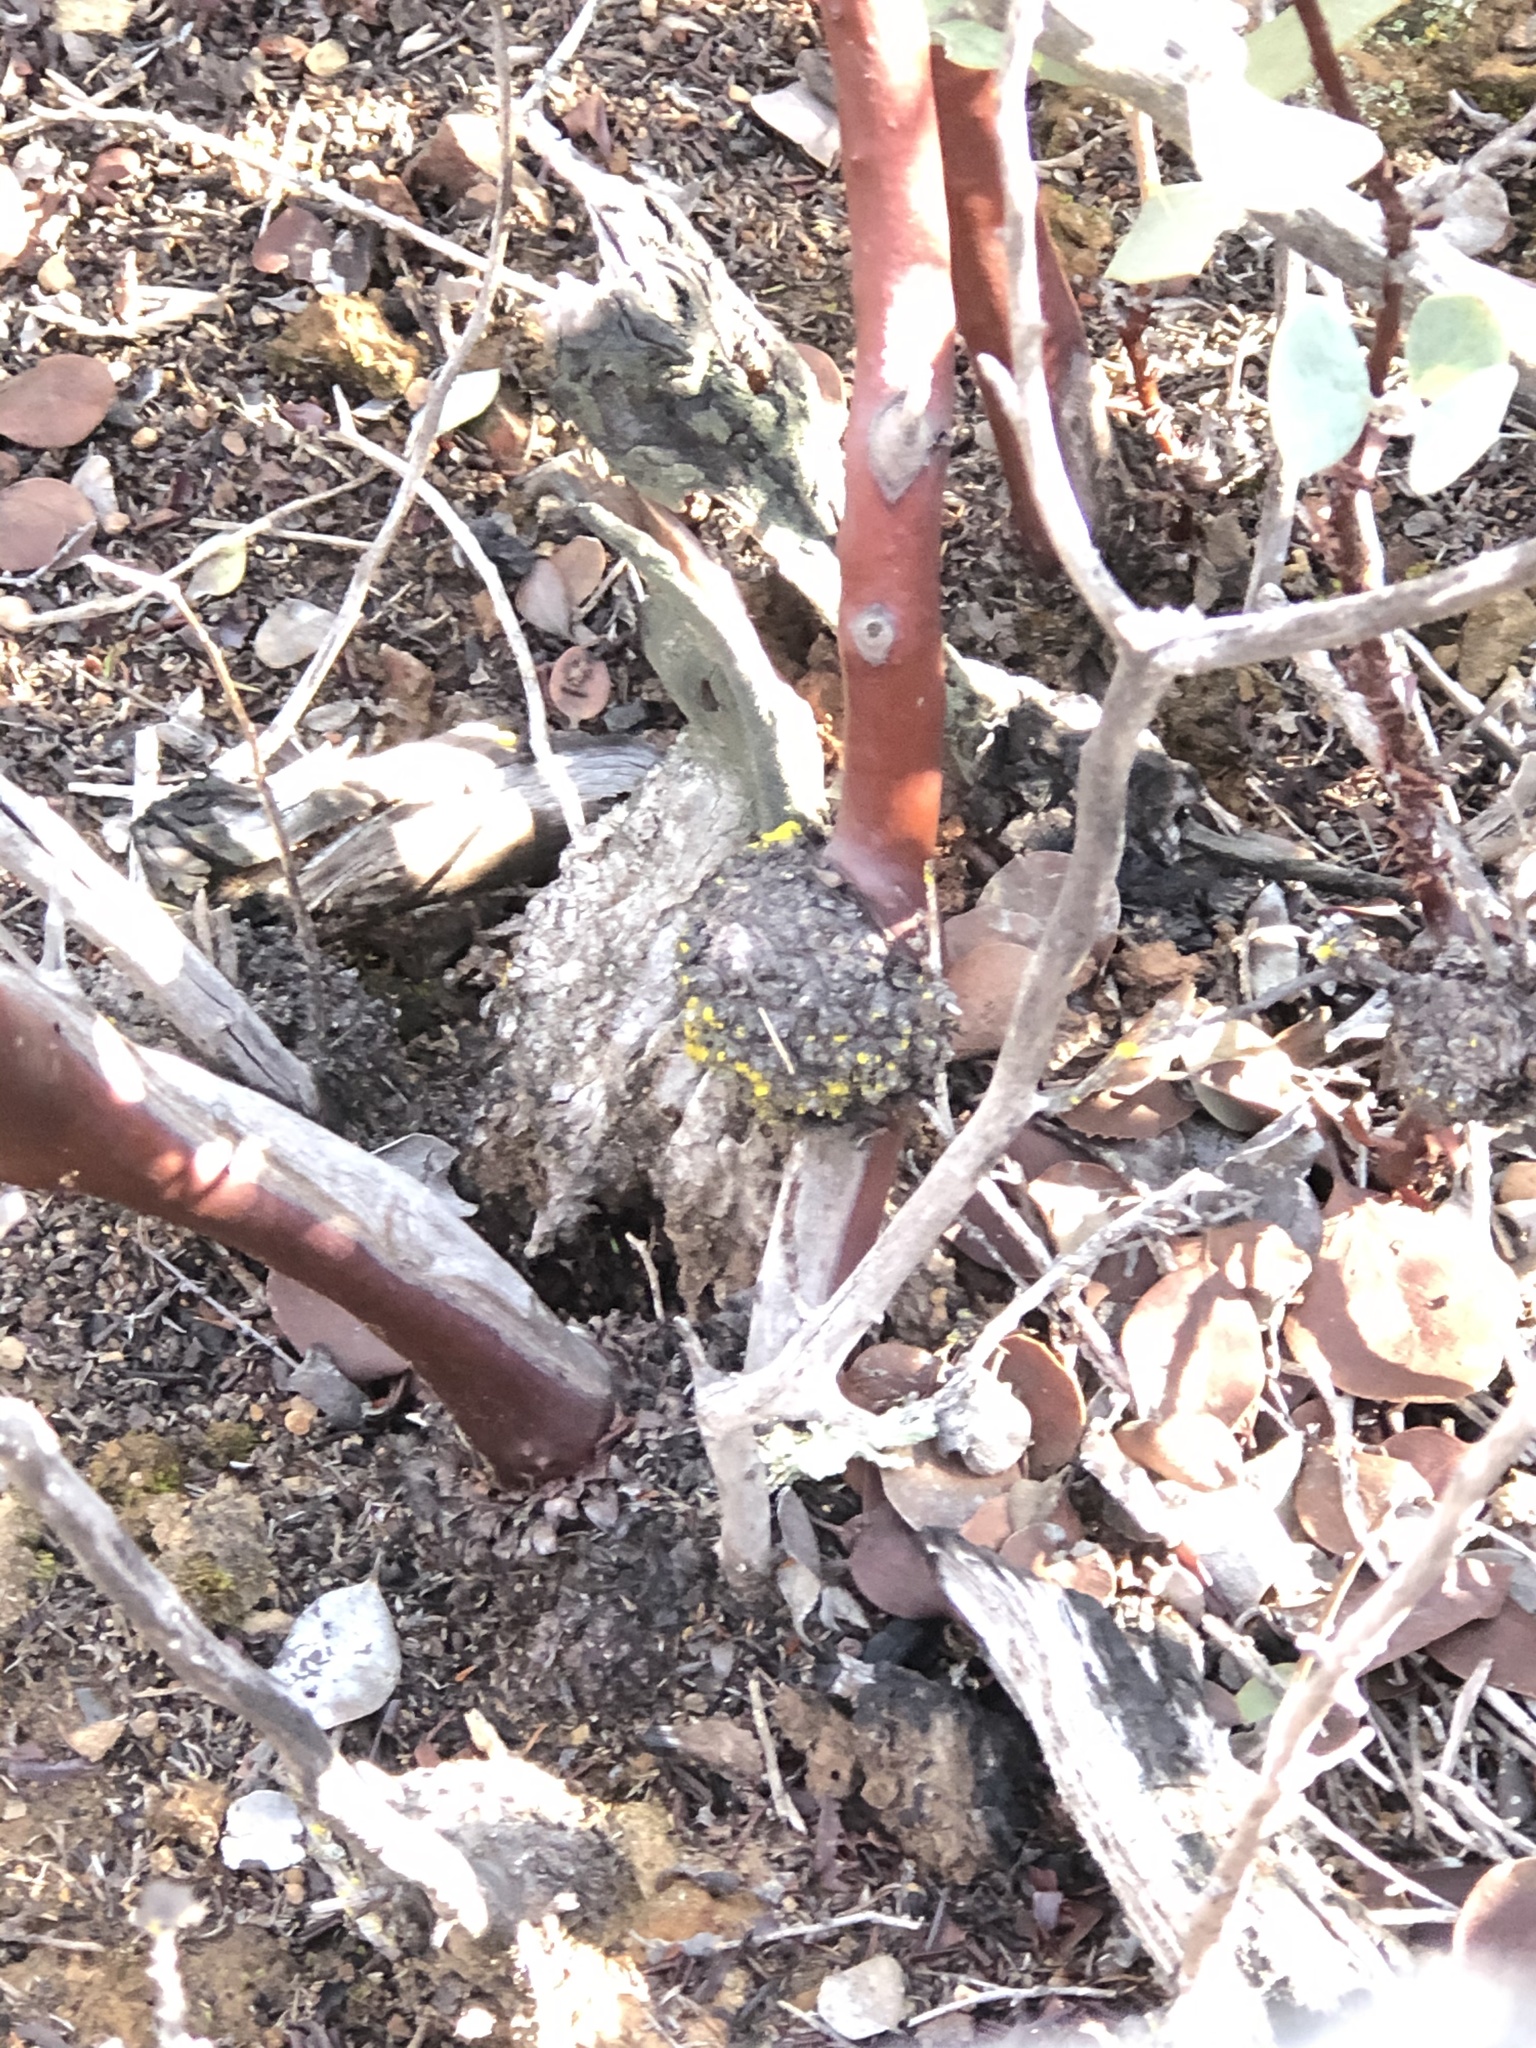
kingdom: Plantae
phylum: Tracheophyta
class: Magnoliopsida
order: Ericales
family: Ericaceae
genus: Arctostaphylos
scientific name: Arctostaphylos glandulosa
